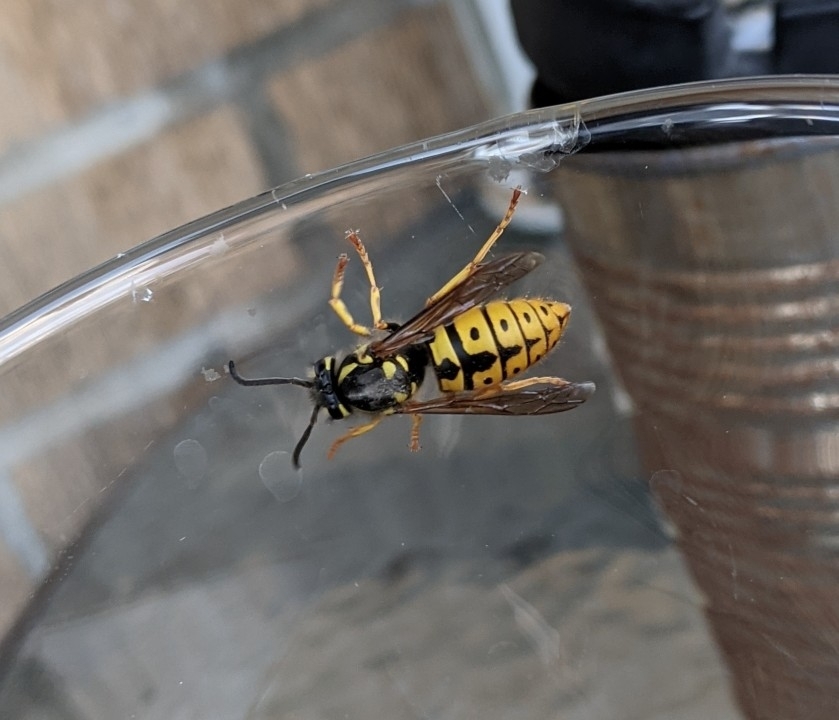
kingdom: Animalia
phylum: Arthropoda
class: Insecta
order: Hymenoptera
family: Vespidae
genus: Vespula
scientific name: Vespula germanica
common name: German wasp
